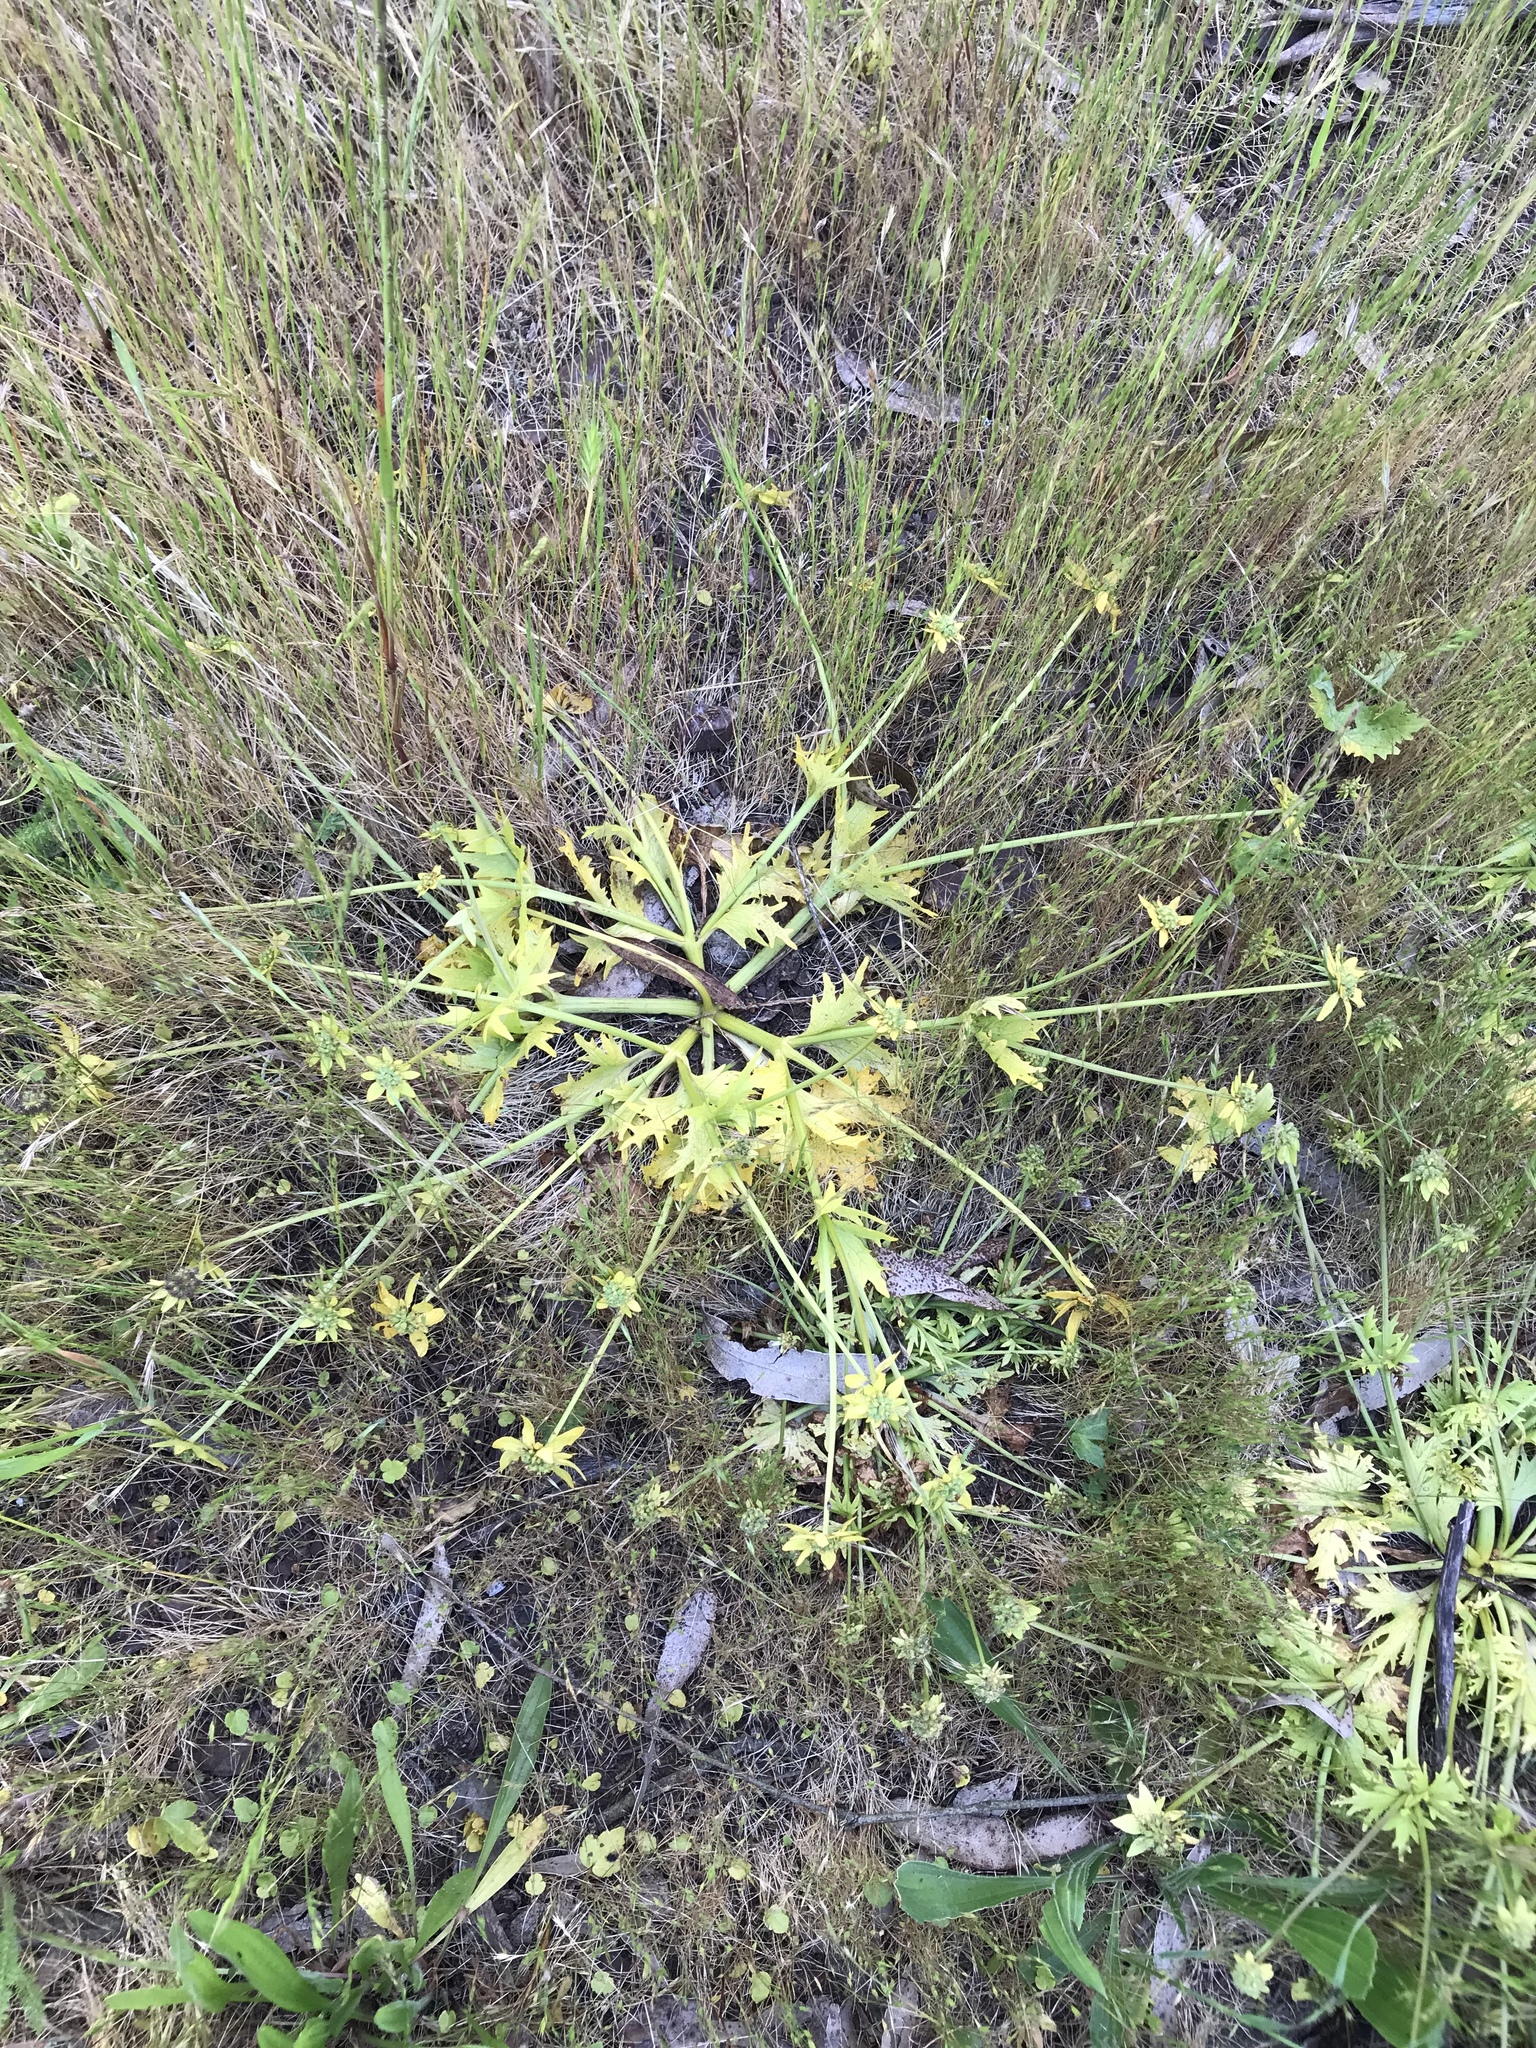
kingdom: Plantae
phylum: Tracheophyta
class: Magnoliopsida
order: Apiales
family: Apiaceae
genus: Sanicula
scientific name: Sanicula arctopoides
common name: Footsteps-of-spring
